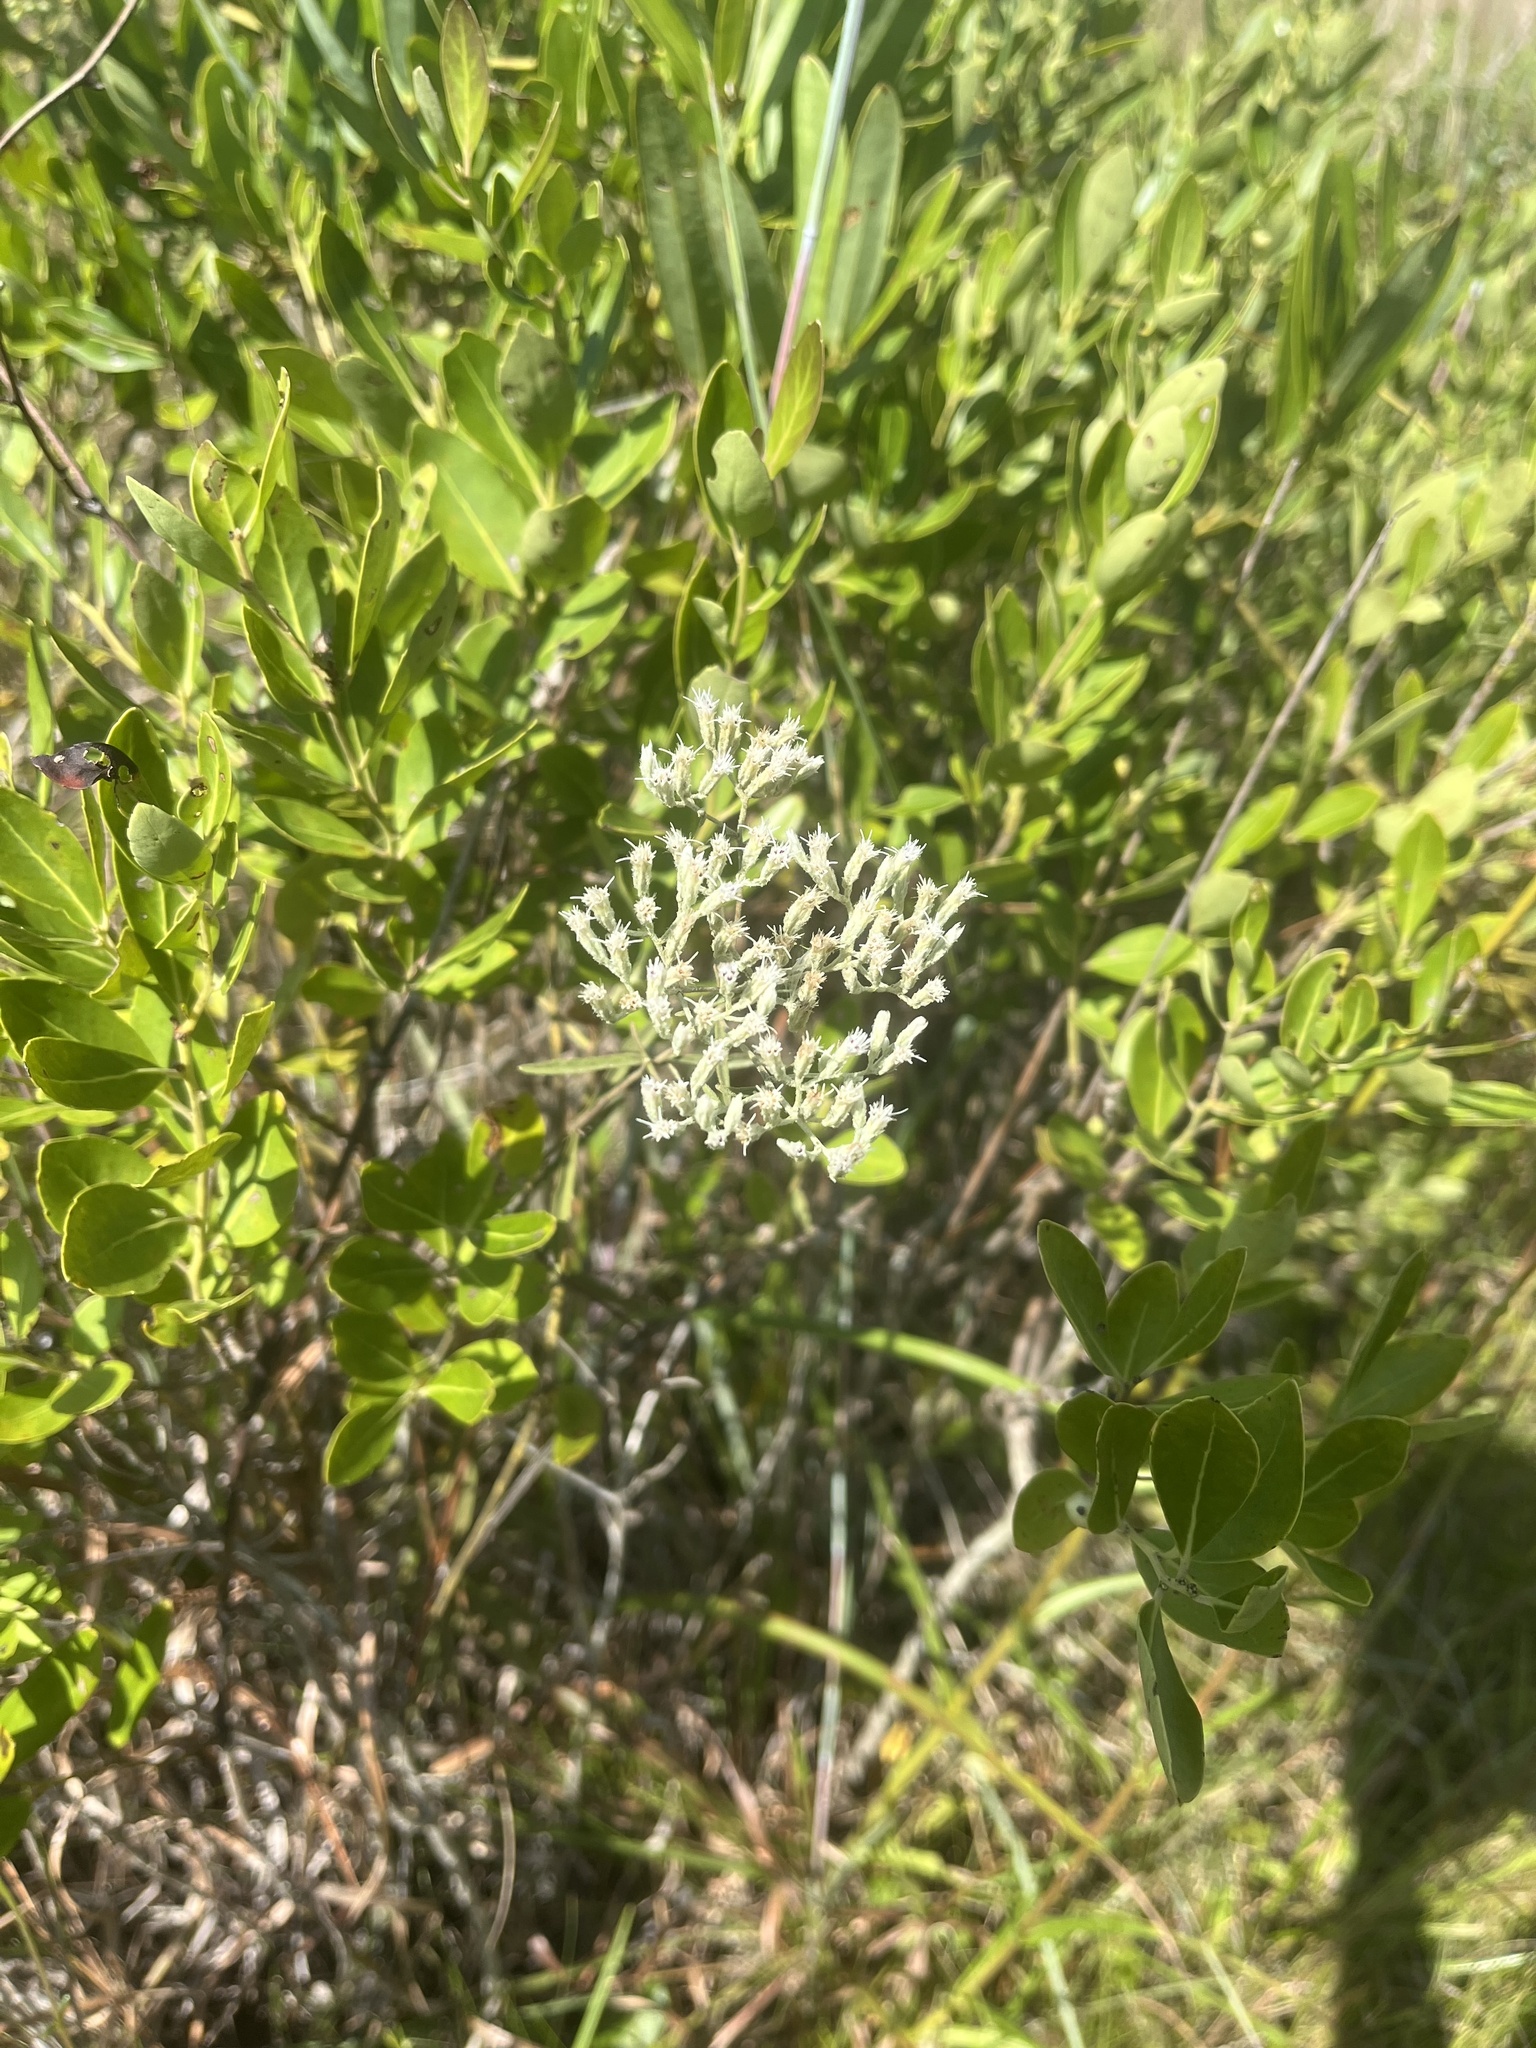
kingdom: Plantae
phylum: Tracheophyta
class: Liliopsida
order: Dioscoreales
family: Nartheciaceae
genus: Lophiola
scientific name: Lophiola aurea
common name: Golden-crest
